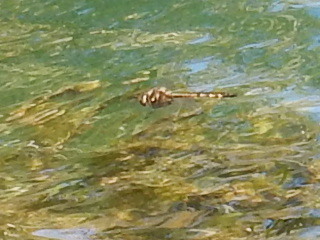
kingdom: Animalia
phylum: Arthropoda
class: Insecta
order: Odonata
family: Corduliidae
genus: Hemicordulia
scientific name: Hemicordulia armstrongi
